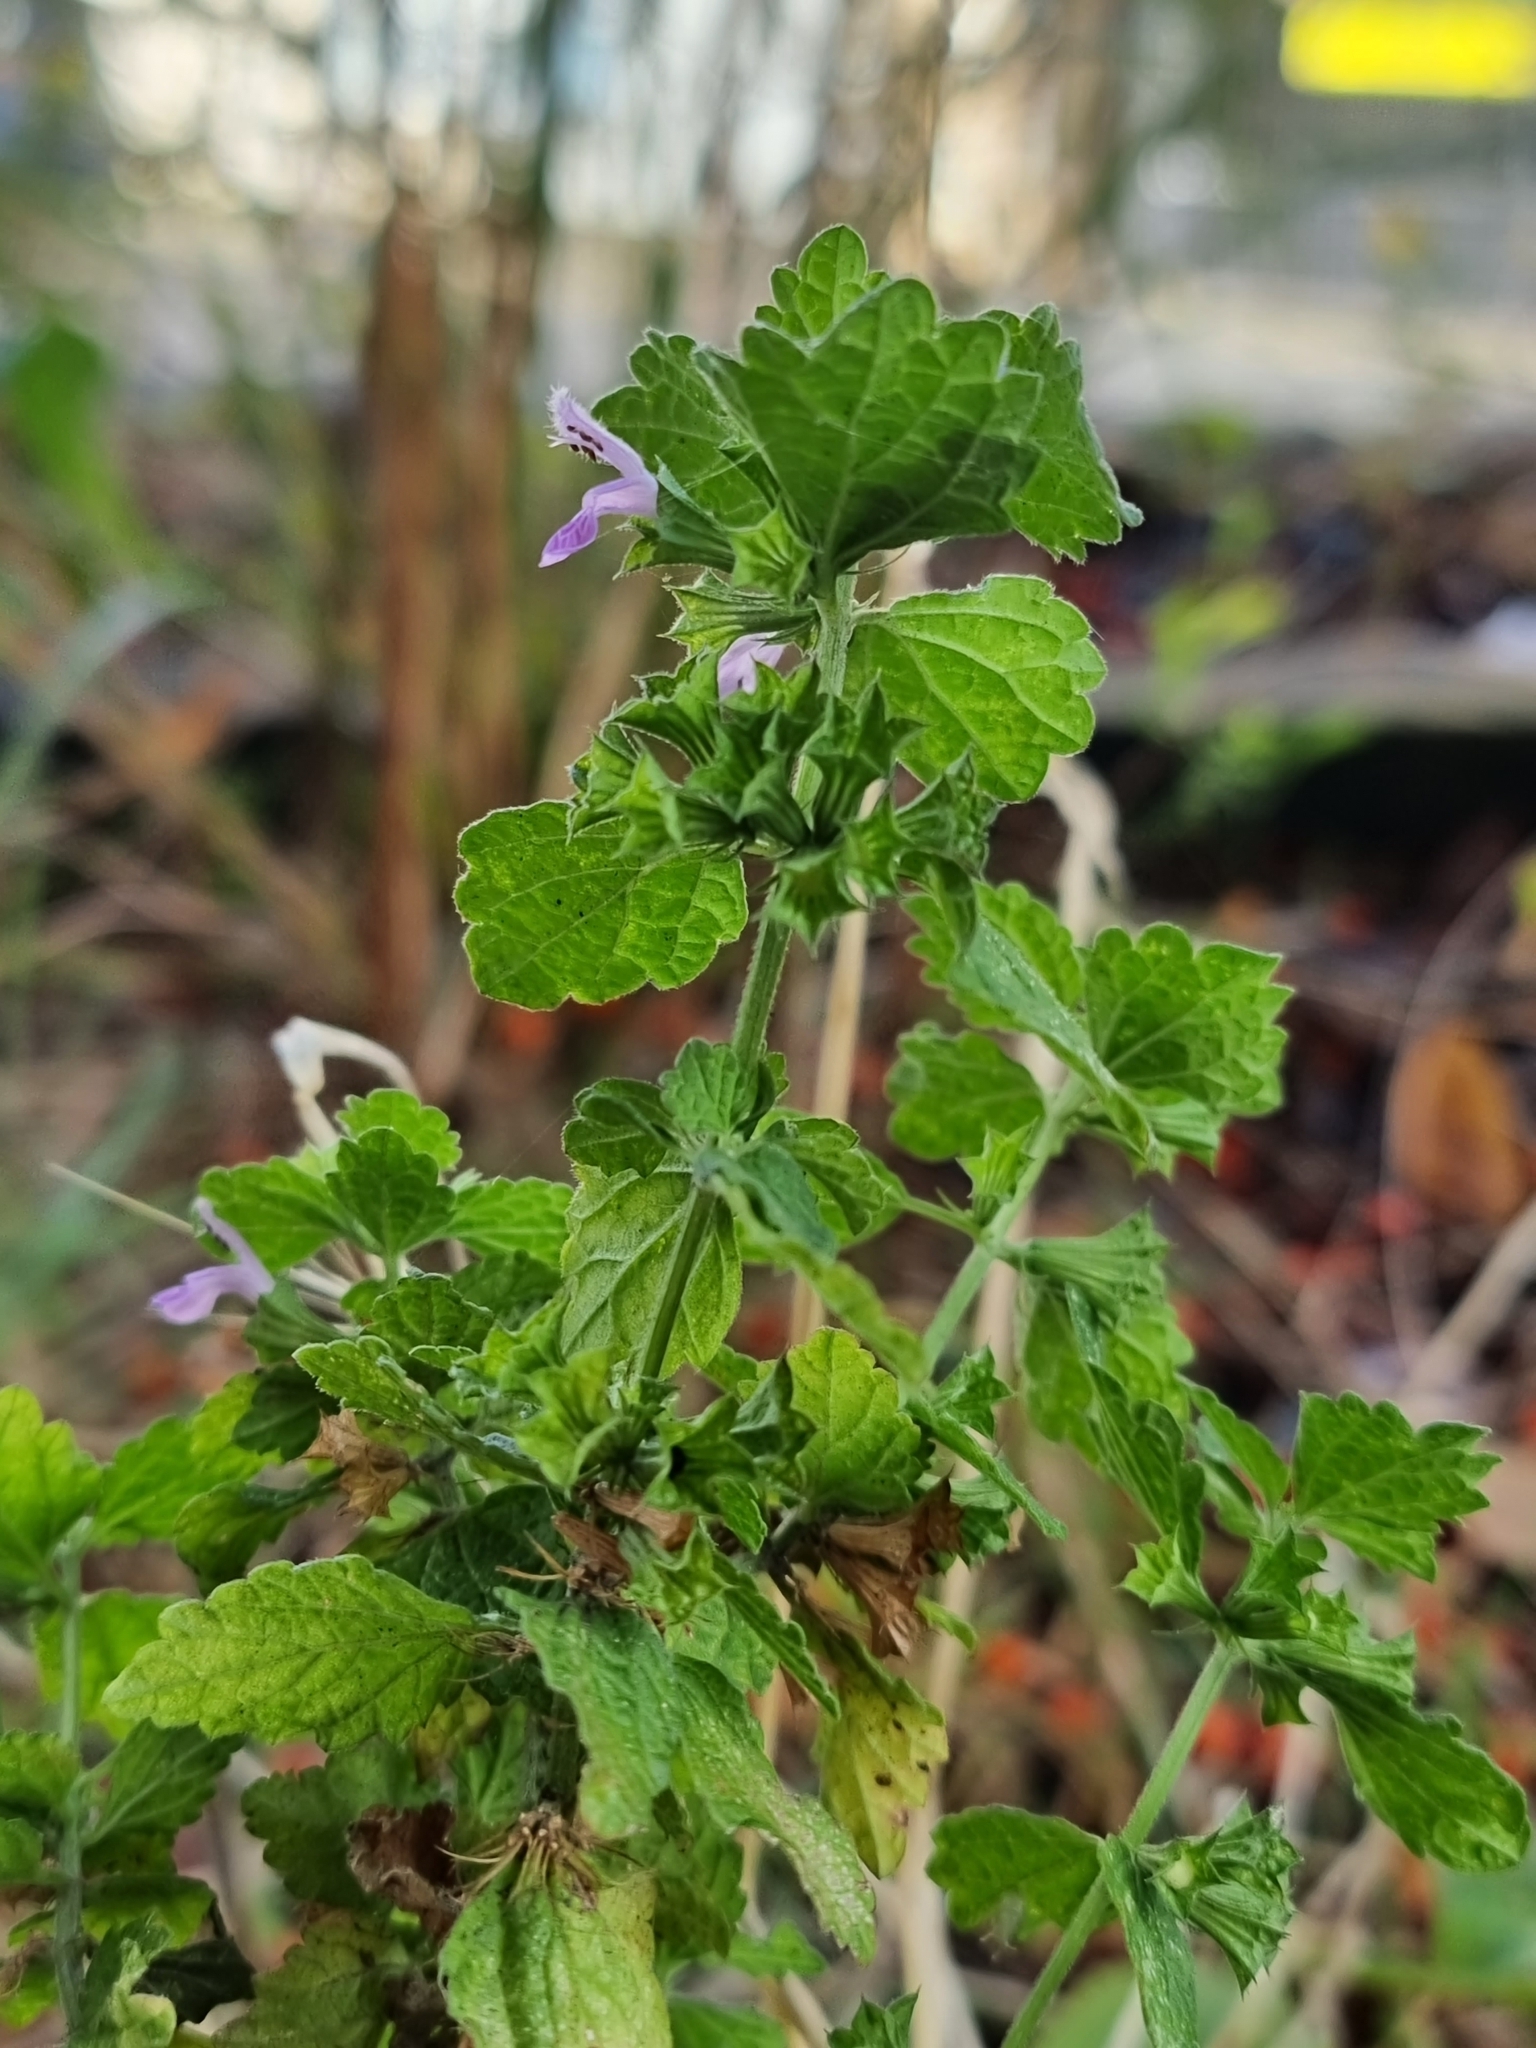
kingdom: Plantae
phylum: Tracheophyta
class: Magnoliopsida
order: Lamiales
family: Lamiaceae
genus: Ballota
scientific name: Ballota nigra
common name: Black horehound
